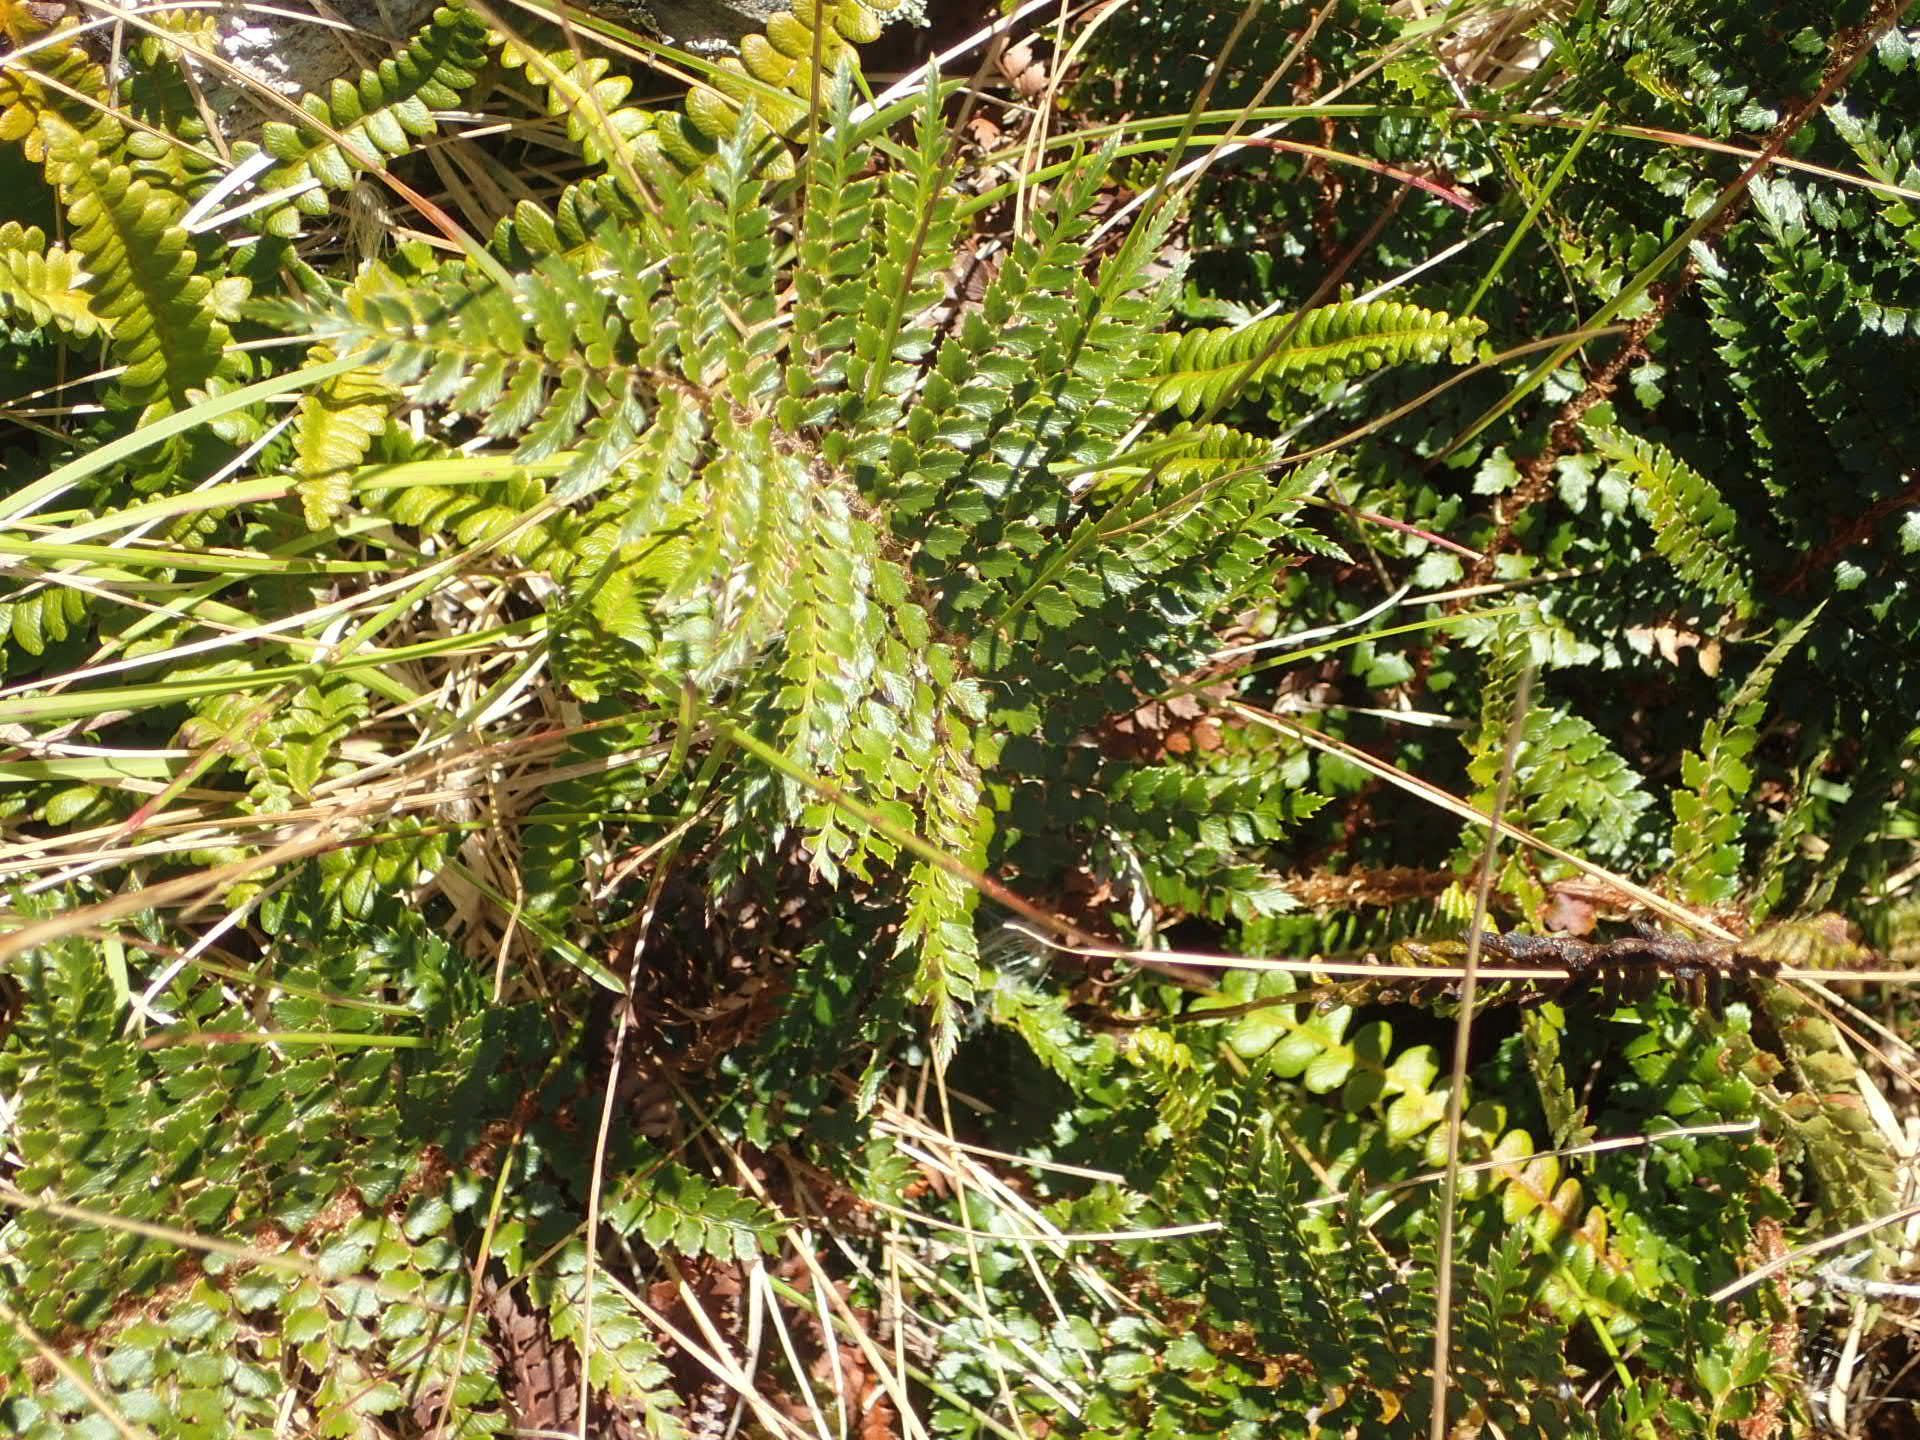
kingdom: Plantae
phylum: Tracheophyta
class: Polypodiopsida
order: Polypodiales
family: Dryopteridaceae
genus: Polystichum
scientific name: Polystichum vestitum
